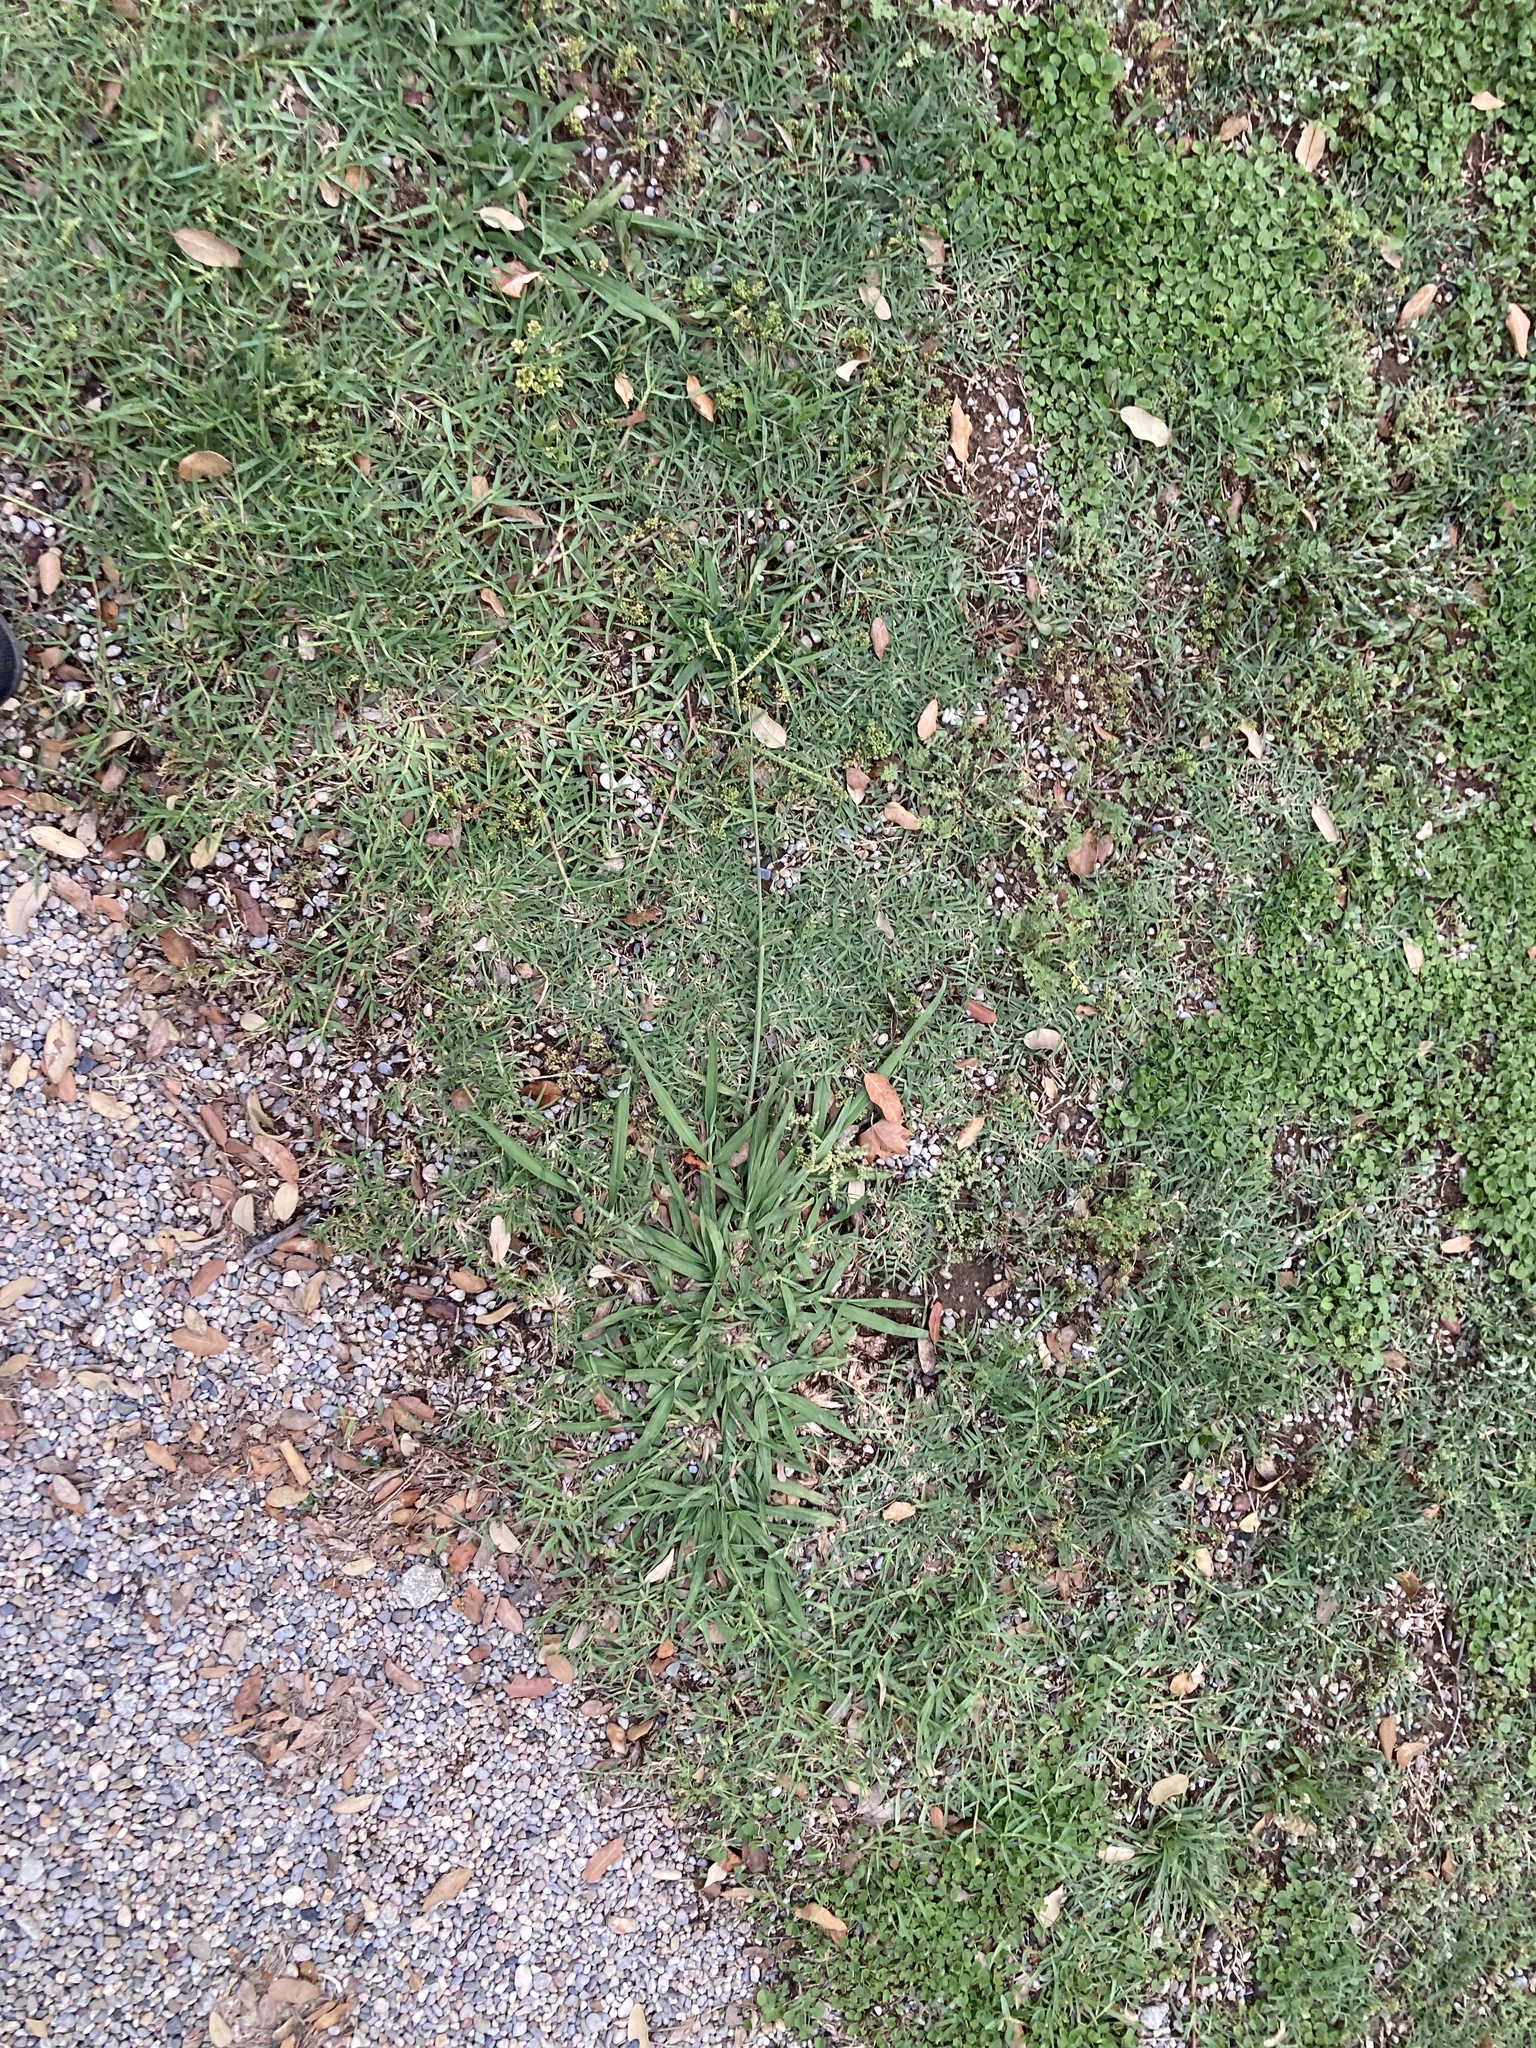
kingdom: Plantae
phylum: Tracheophyta
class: Liliopsida
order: Poales
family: Poaceae
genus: Paspalum
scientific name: Paspalum dilatatum
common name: Dallisgrass
